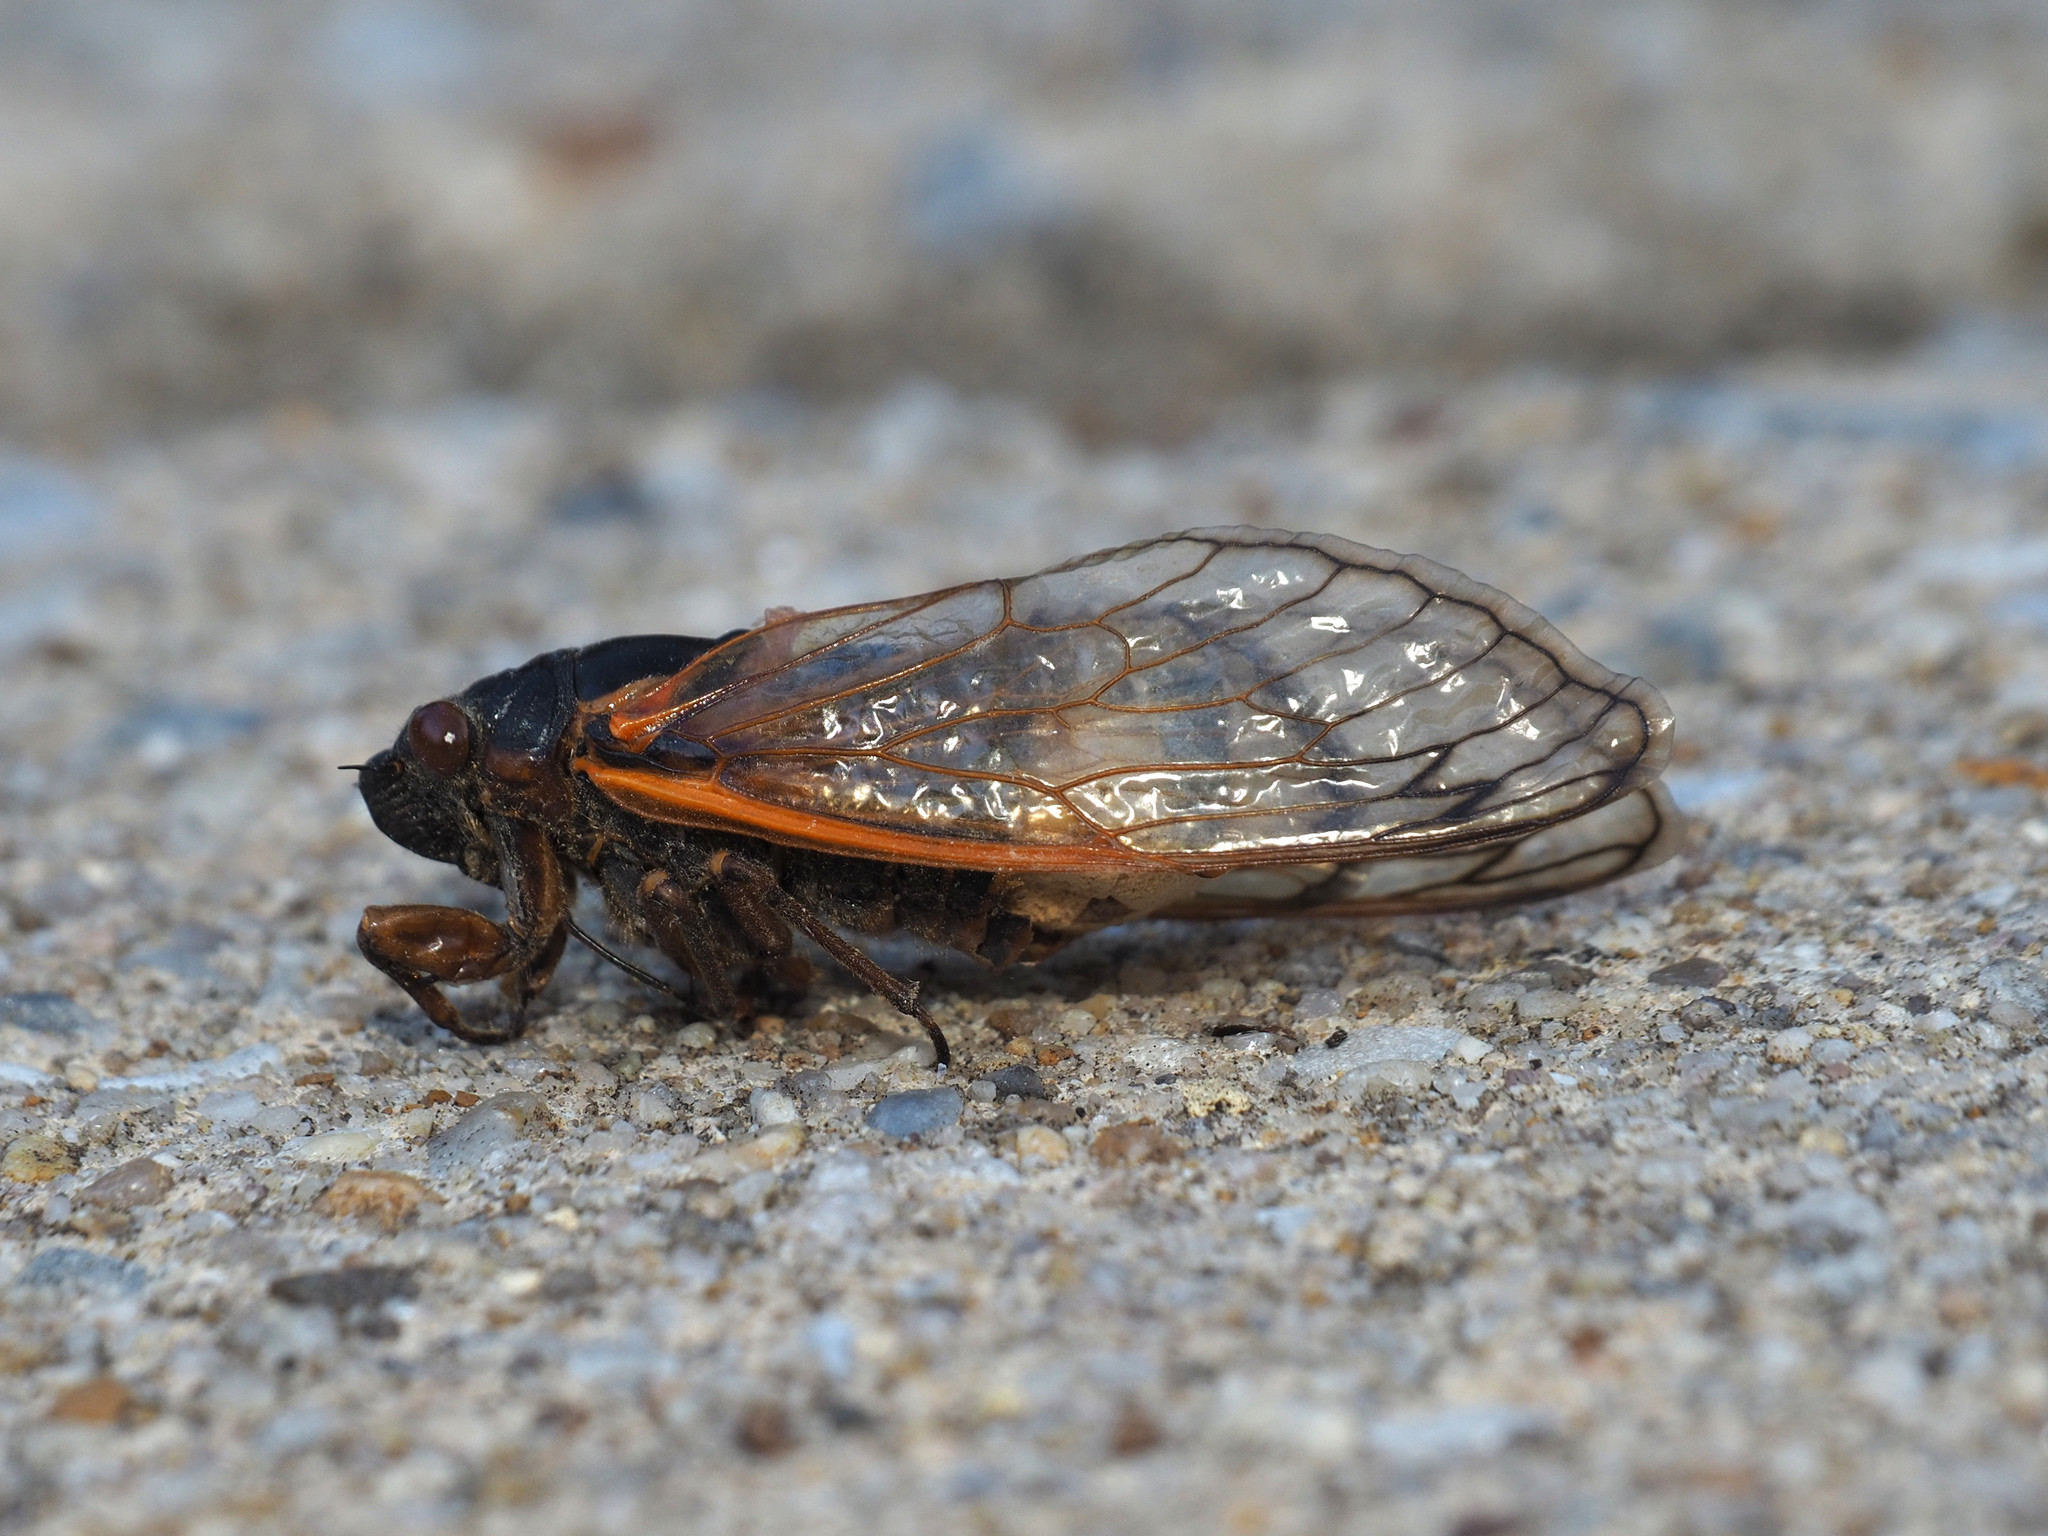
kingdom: Animalia
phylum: Arthropoda
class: Insecta
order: Hemiptera
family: Cicadidae
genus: Magicicada
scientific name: Magicicada septendecim
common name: Periodical cicada
